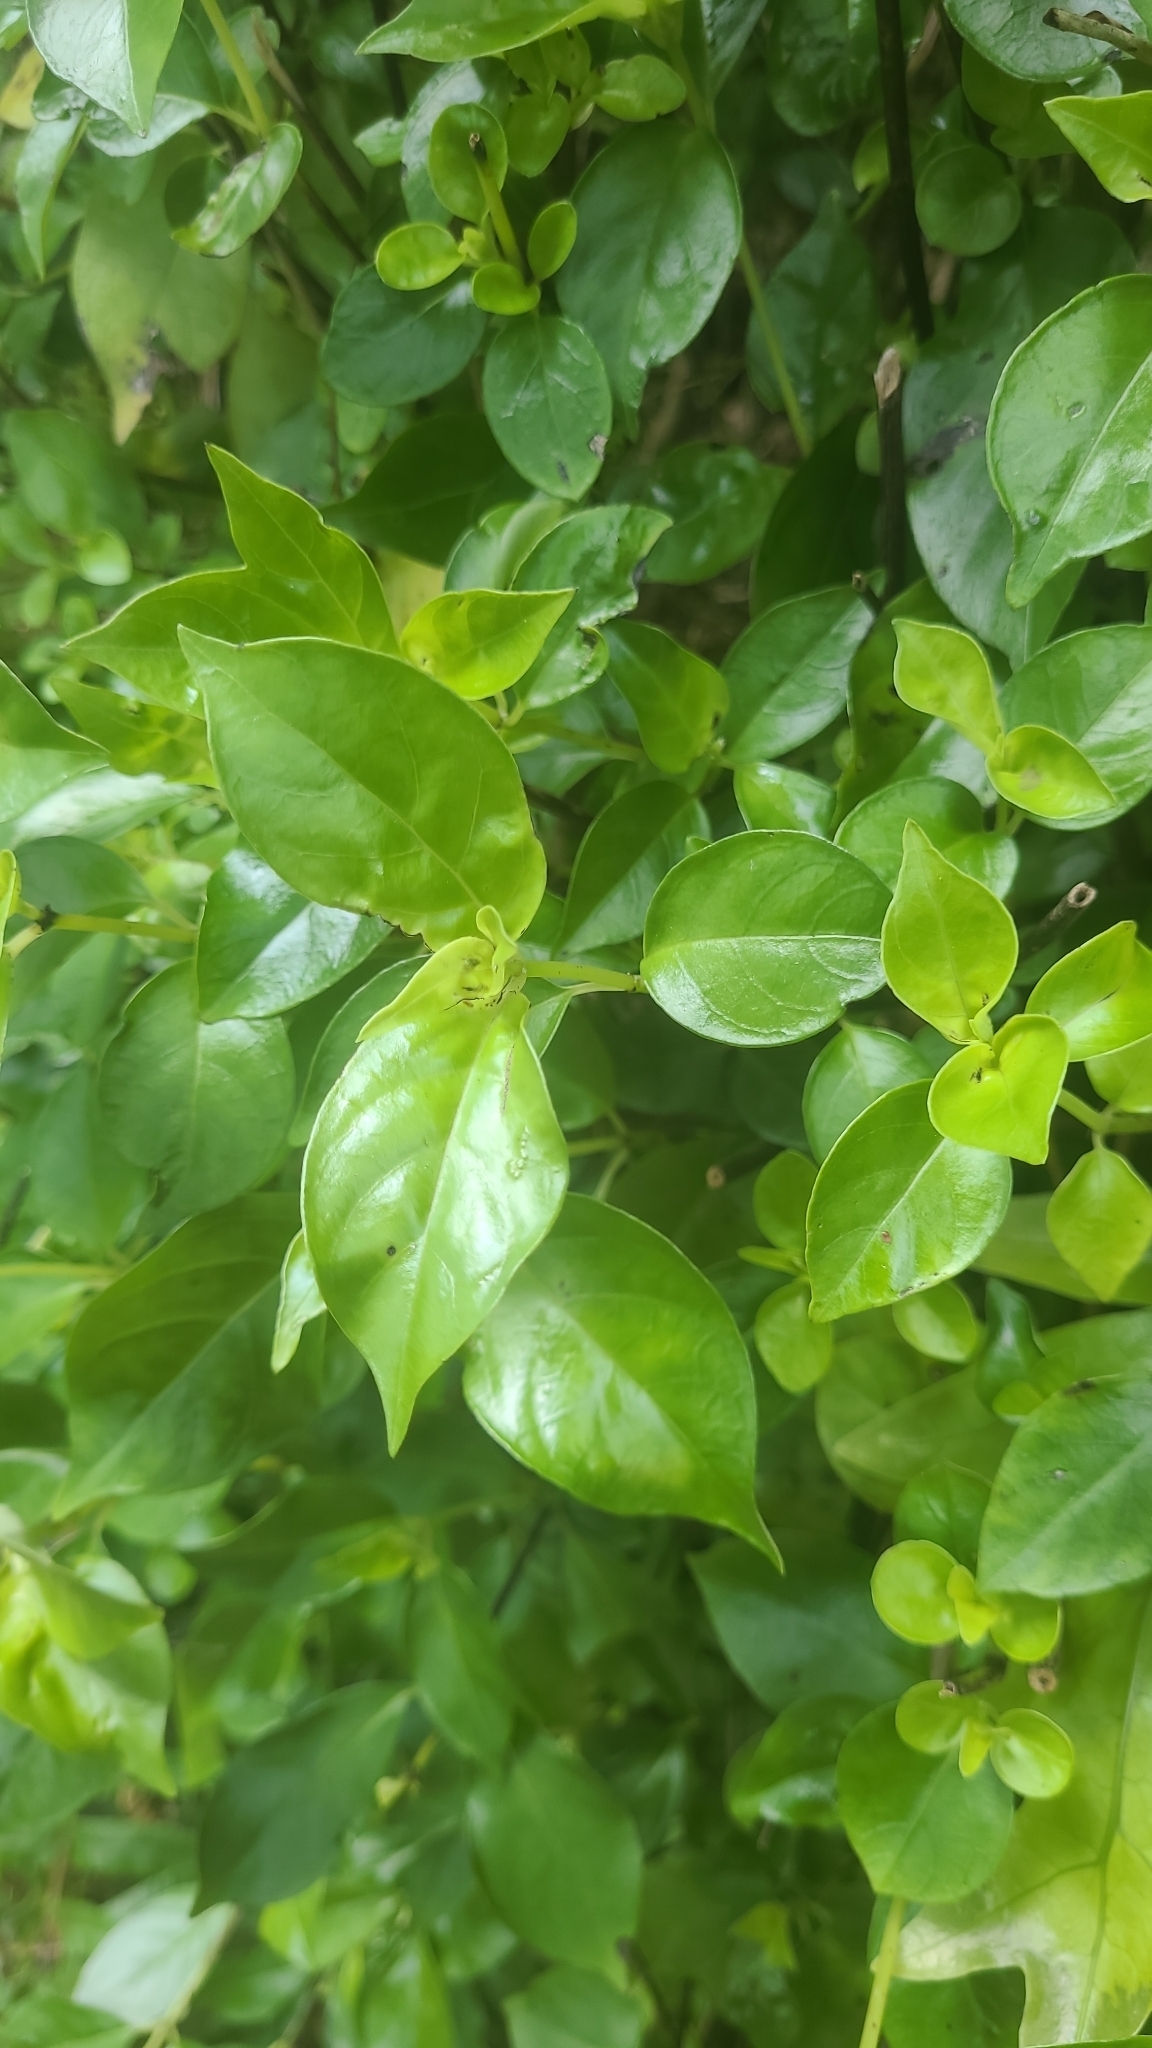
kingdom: Plantae
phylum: Tracheophyta
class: Magnoliopsida
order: Gentianales
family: Loganiaceae
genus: Geniostoma
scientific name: Geniostoma ligustrifolium
